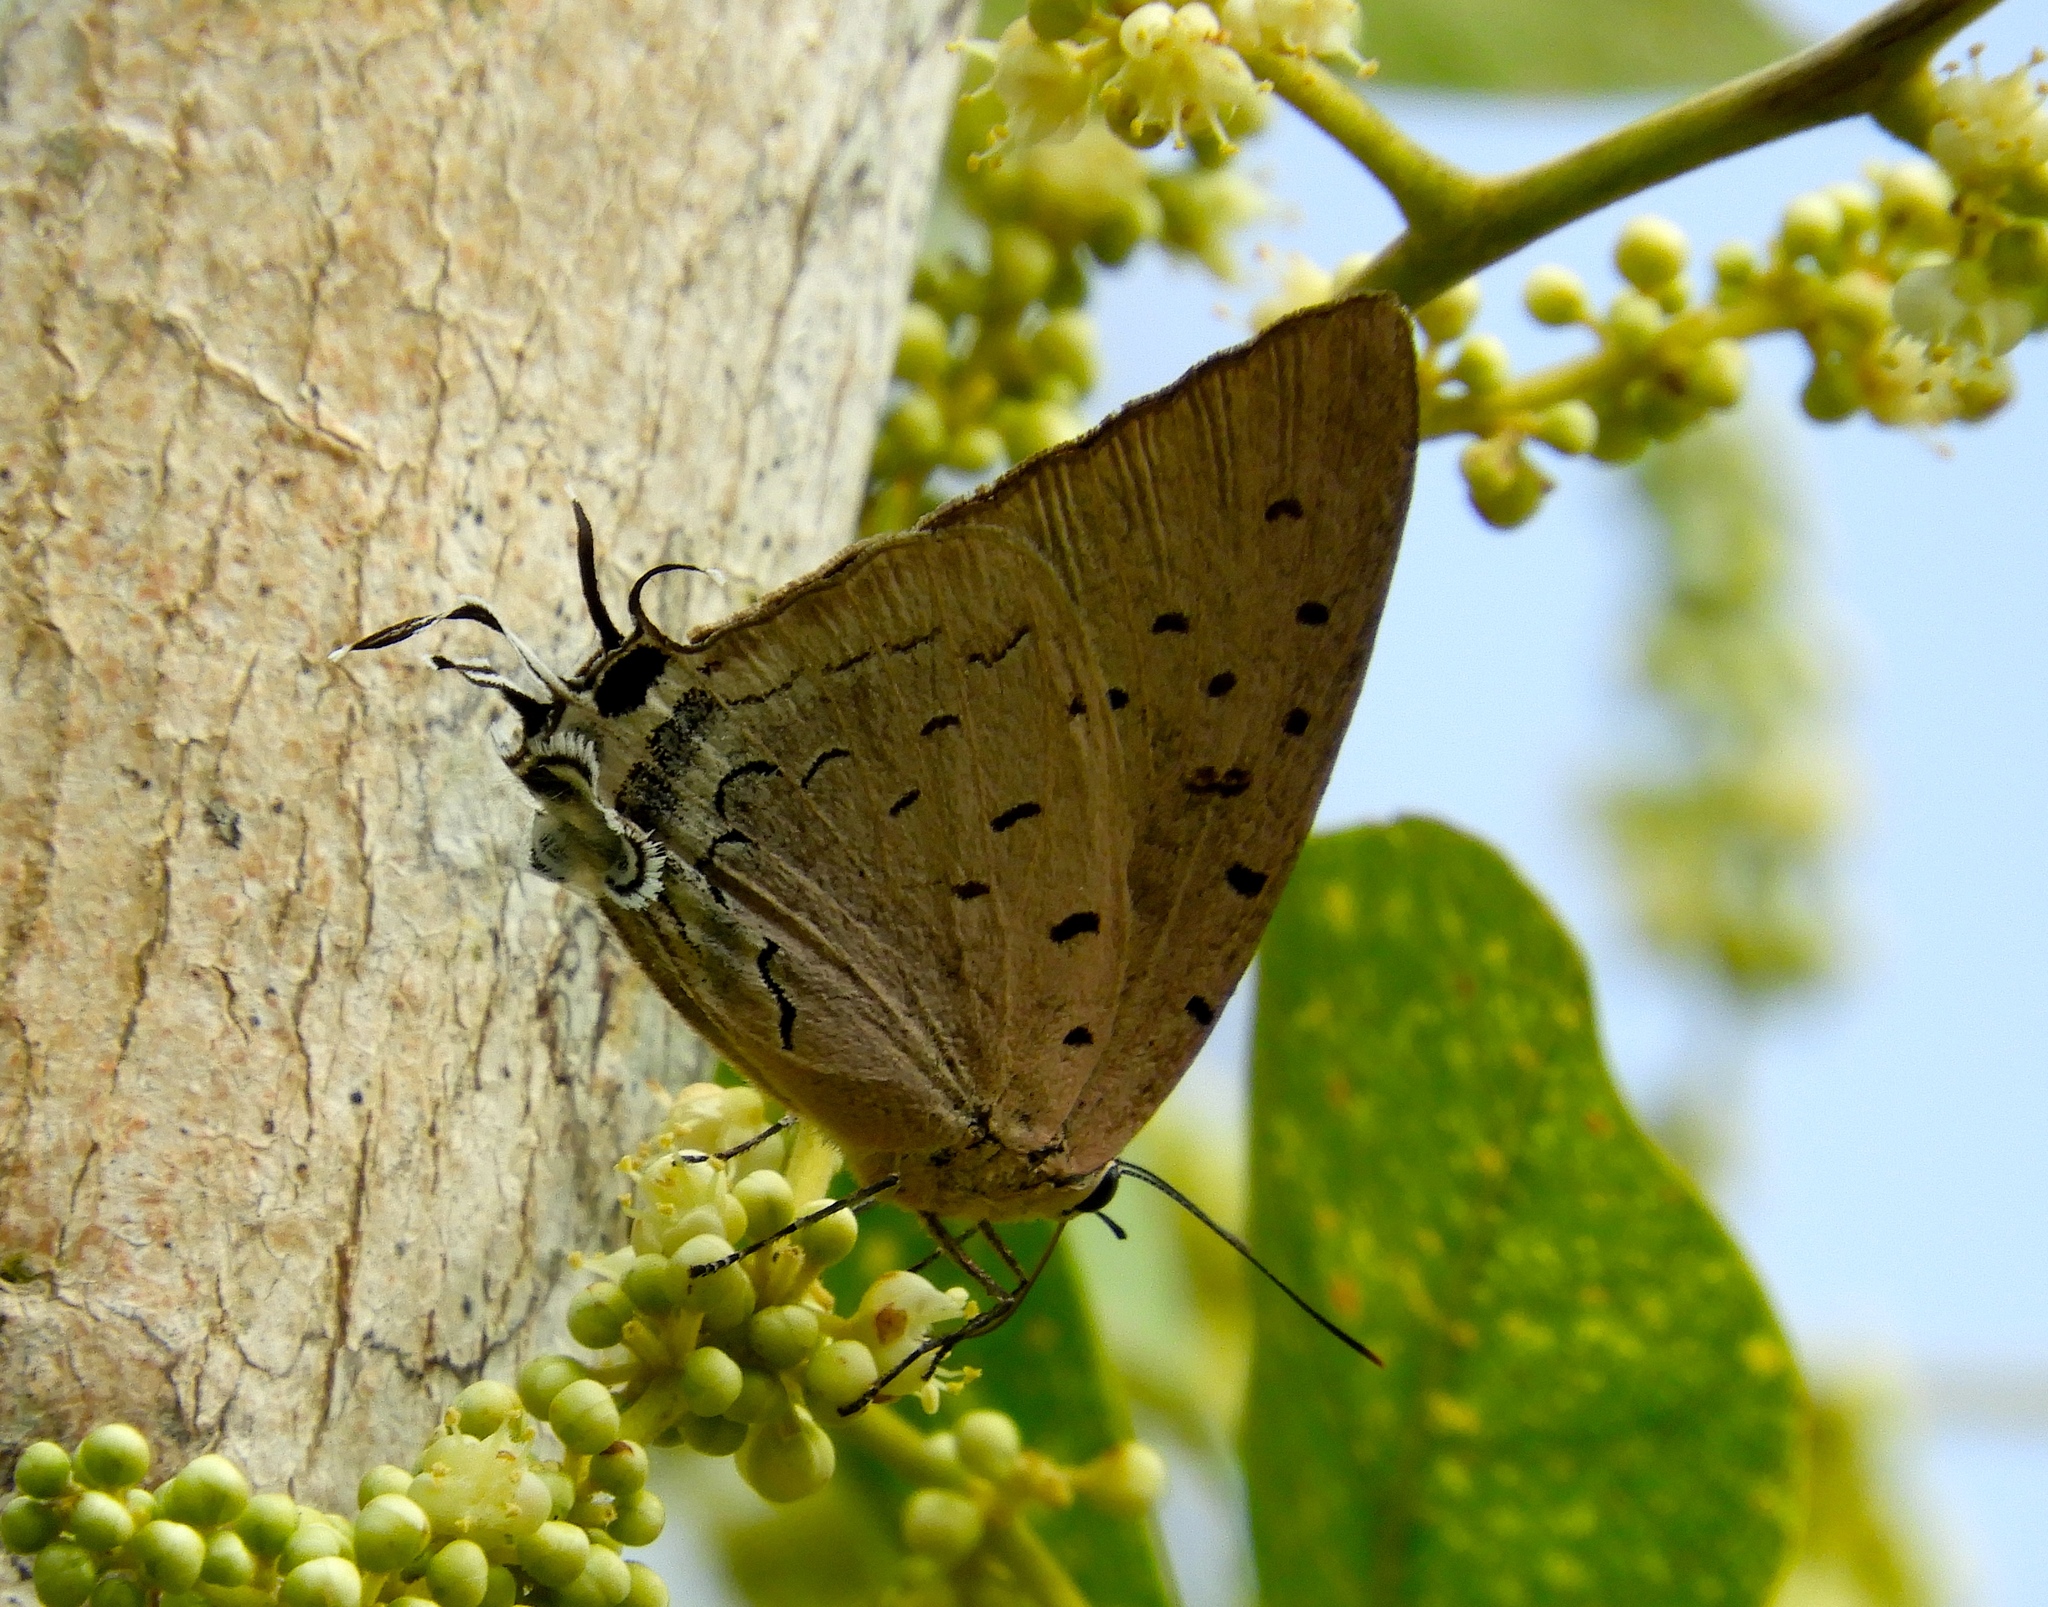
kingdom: Animalia
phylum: Arthropoda
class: Insecta
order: Lepidoptera
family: Lycaenidae
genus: Pseudolycaena
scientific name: Pseudolycaena damo
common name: Sky-blue hairstreak
